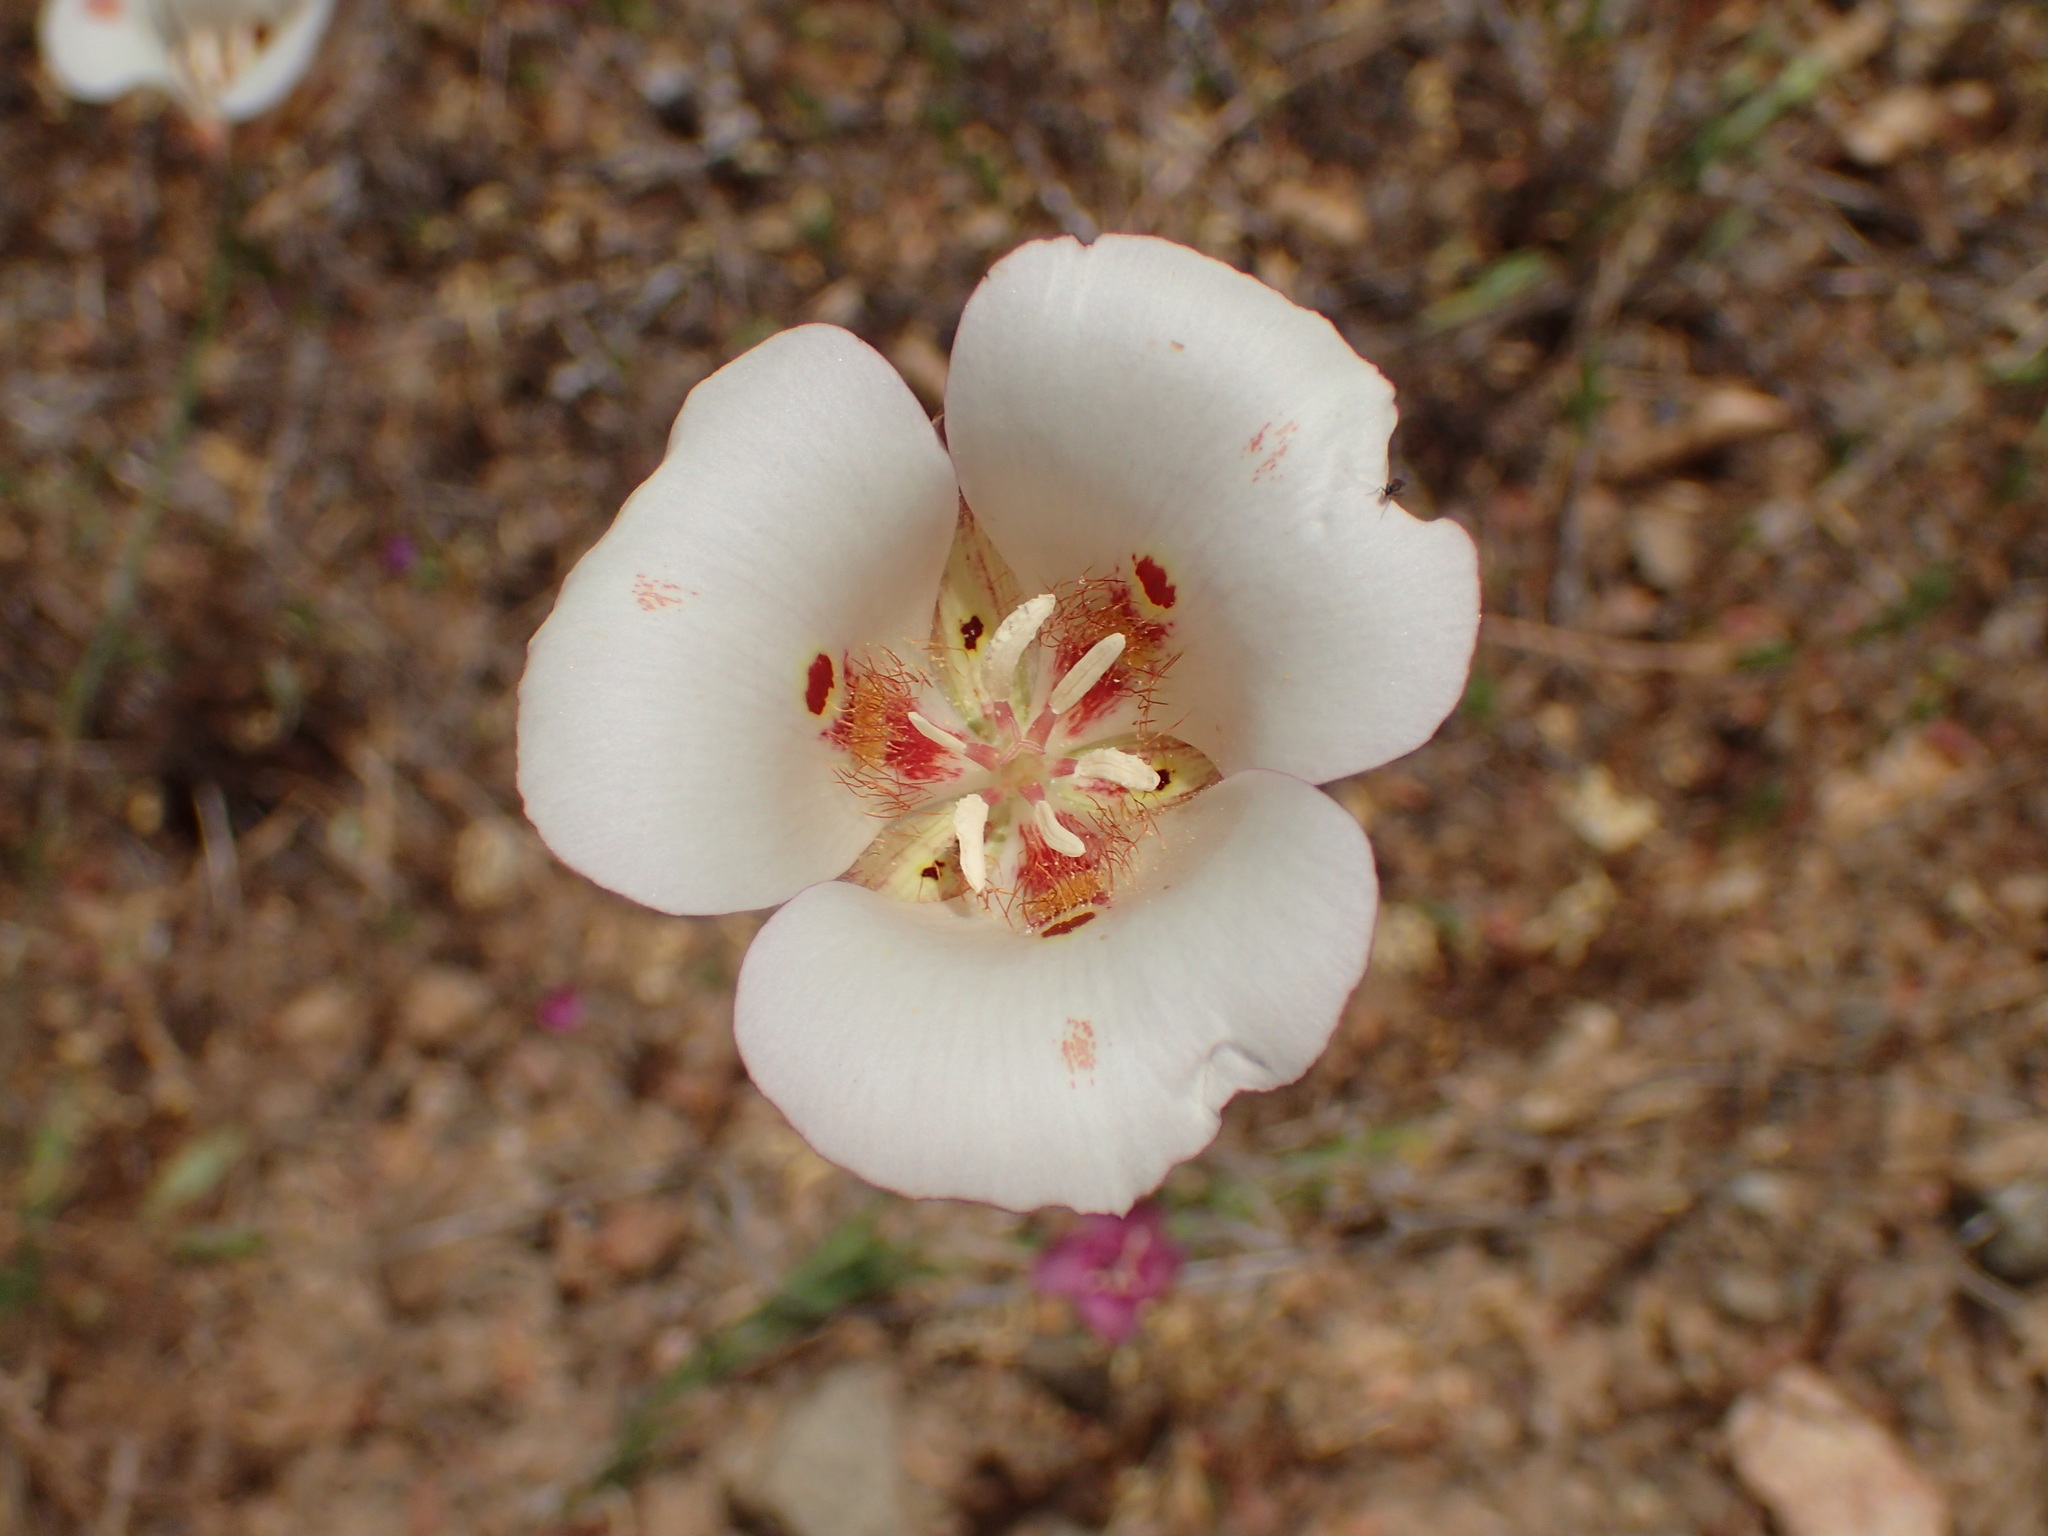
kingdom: Plantae
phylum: Tracheophyta
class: Liliopsida
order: Liliales
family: Liliaceae
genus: Calochortus
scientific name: Calochortus venustus
